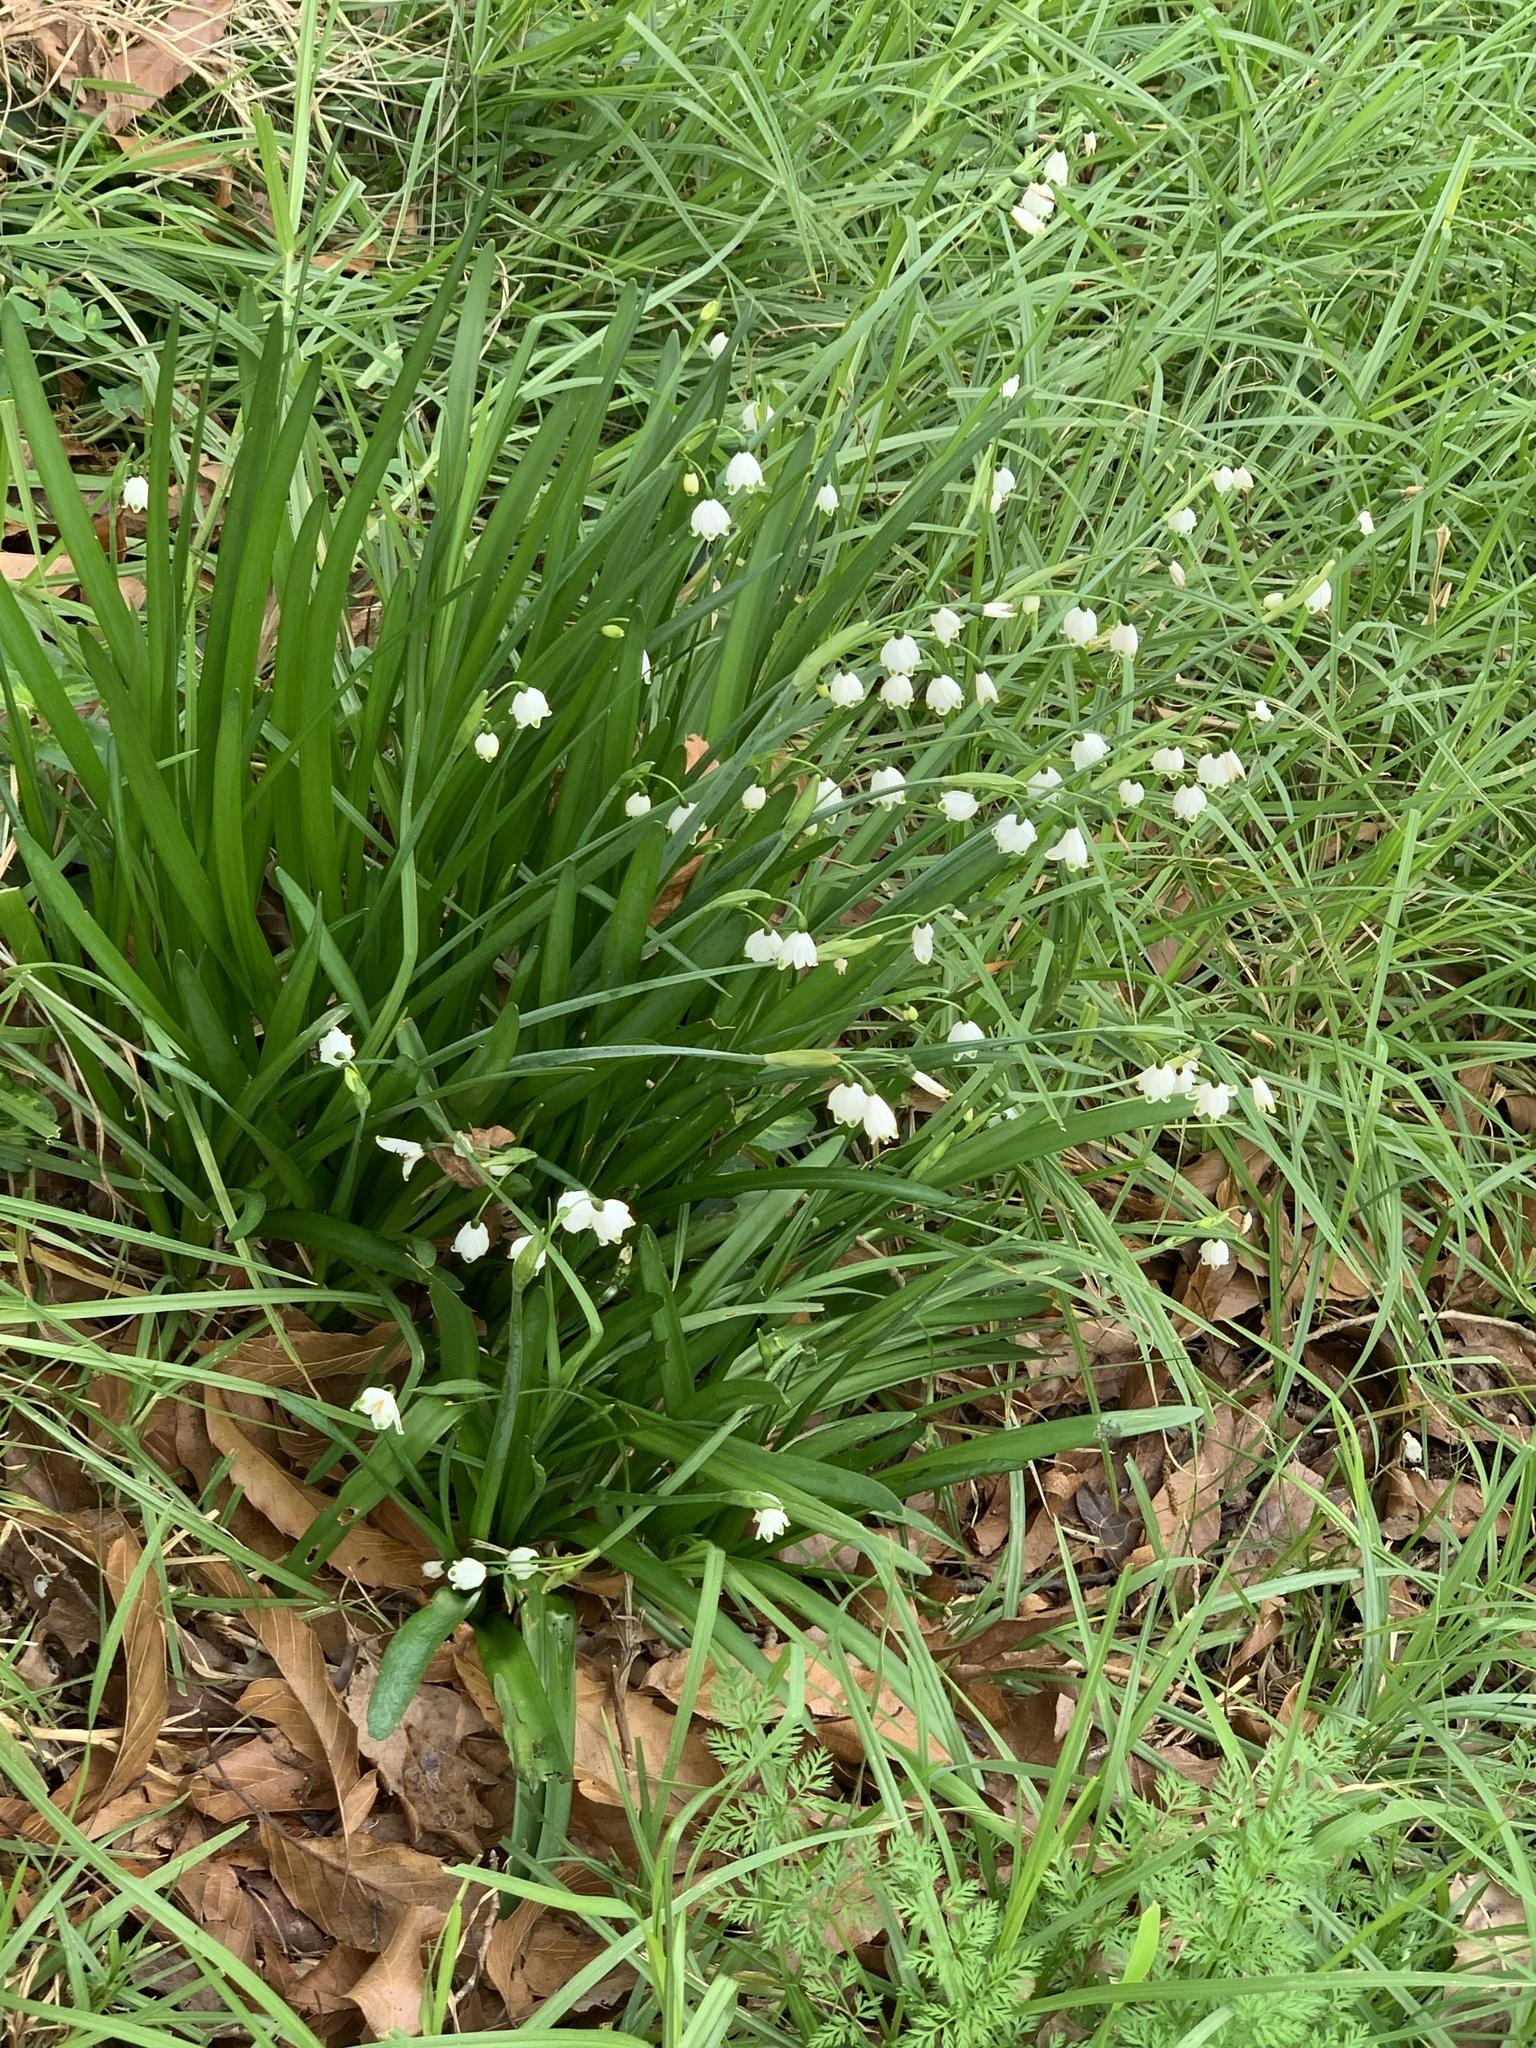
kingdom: Plantae
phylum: Tracheophyta
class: Liliopsida
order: Asparagales
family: Amaryllidaceae
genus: Leucojum
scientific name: Leucojum aestivum
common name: Summer snowflake
